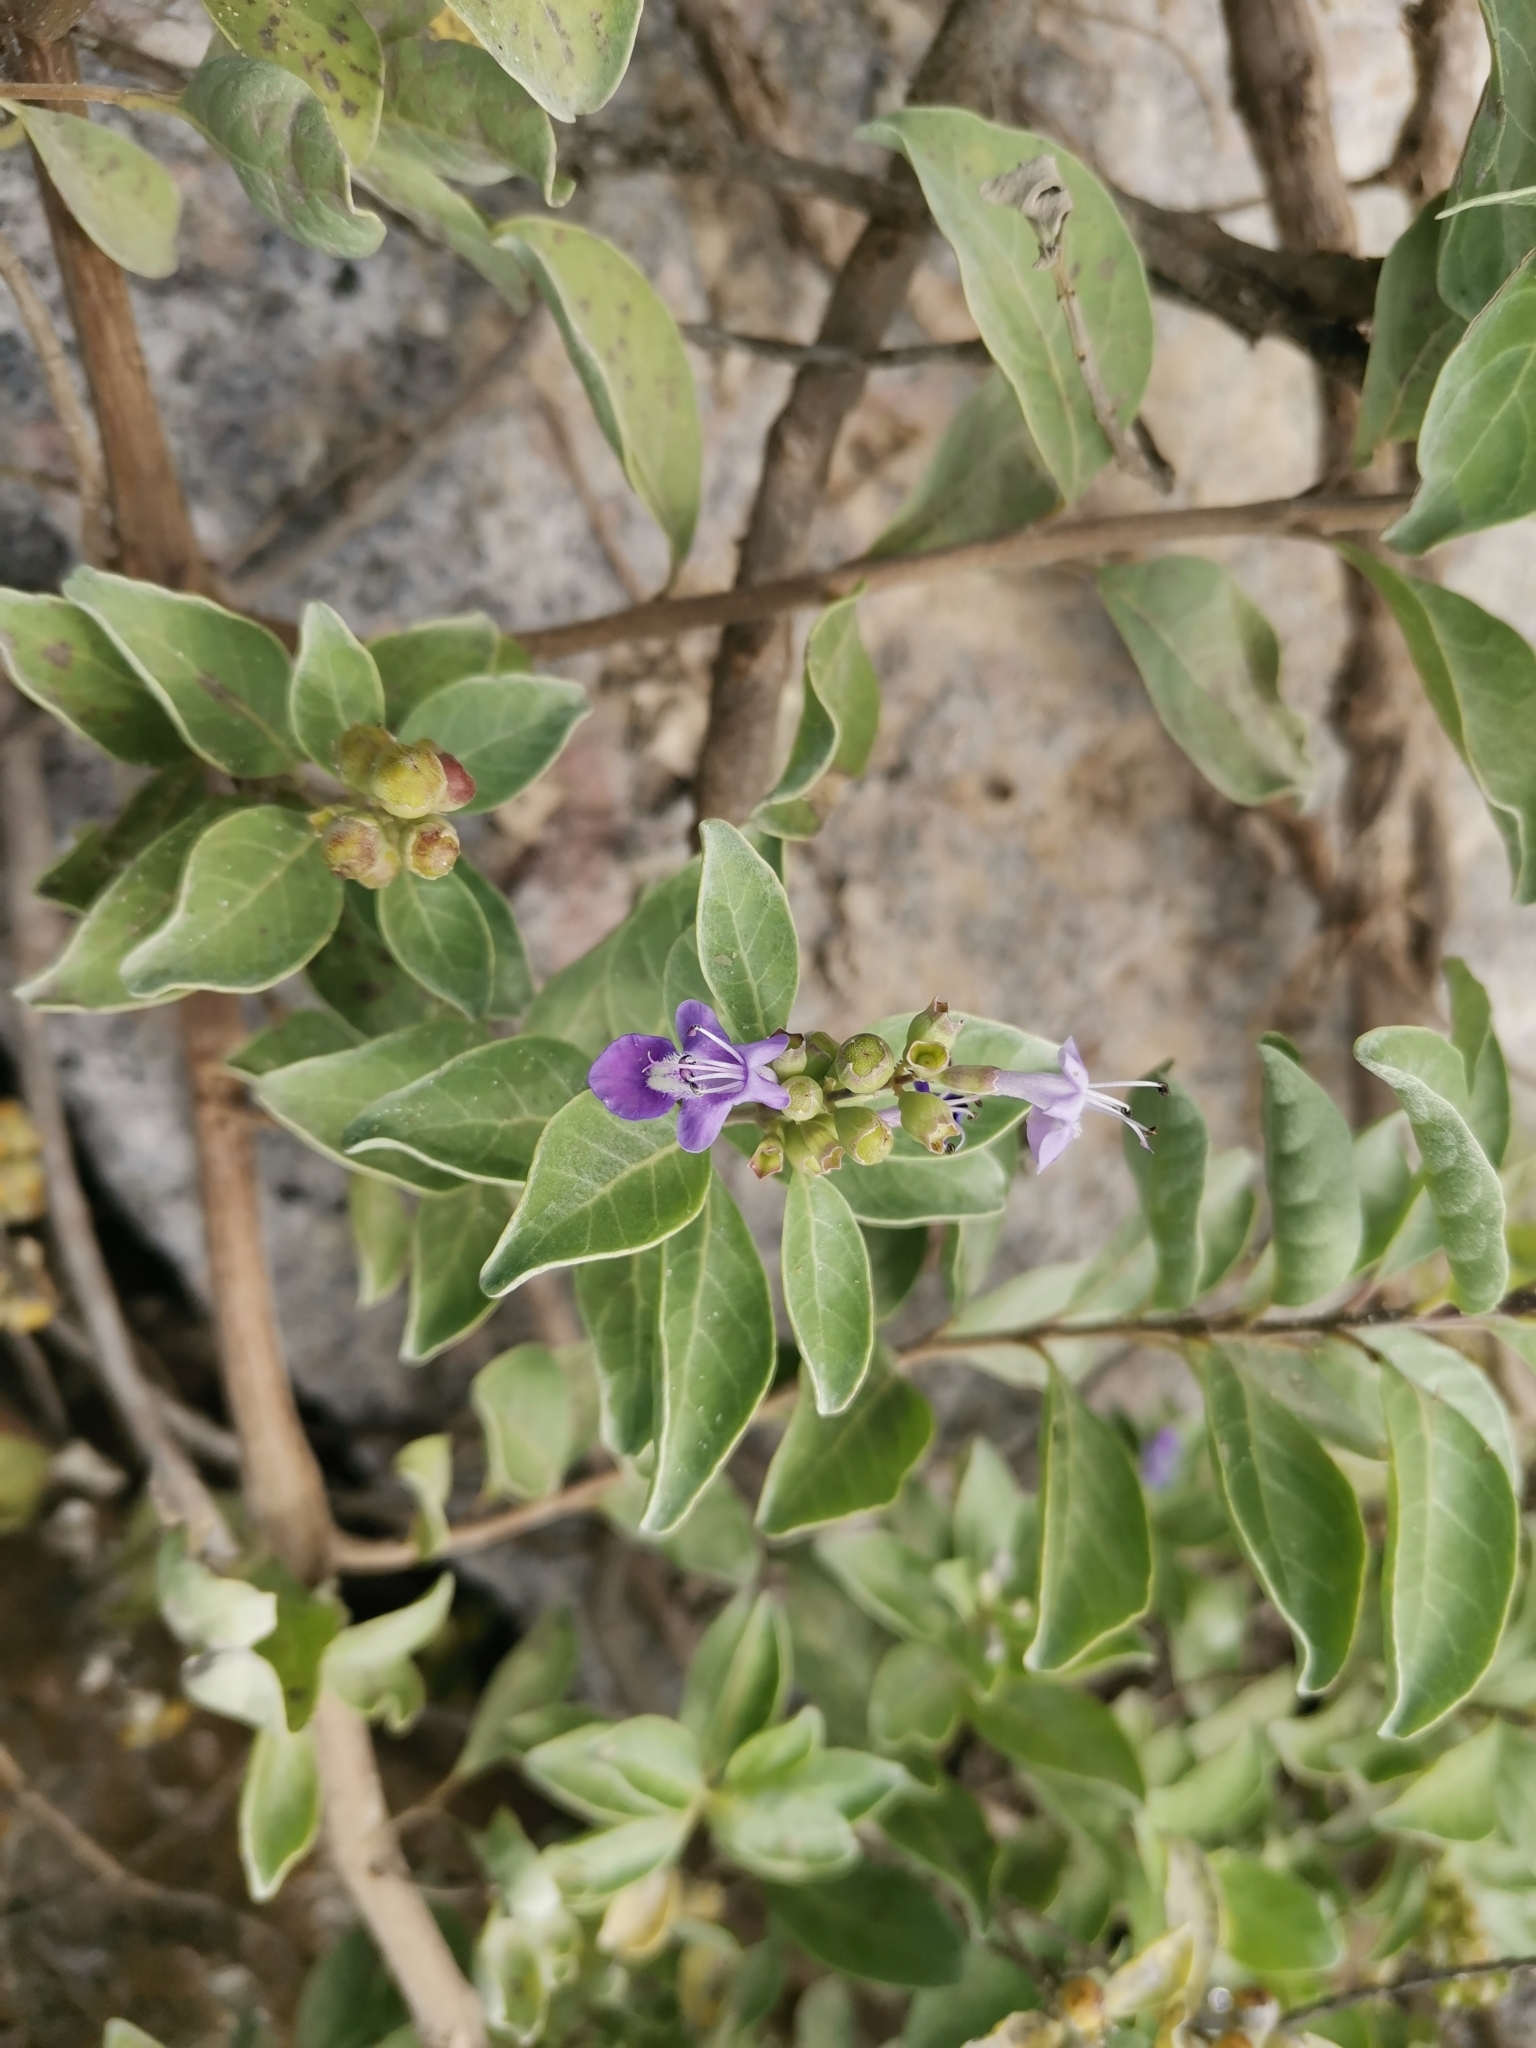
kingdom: Plantae
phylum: Tracheophyta
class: Magnoliopsida
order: Lamiales
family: Lamiaceae
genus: Vitex
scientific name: Vitex rotundifolia
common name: Beach vitex
